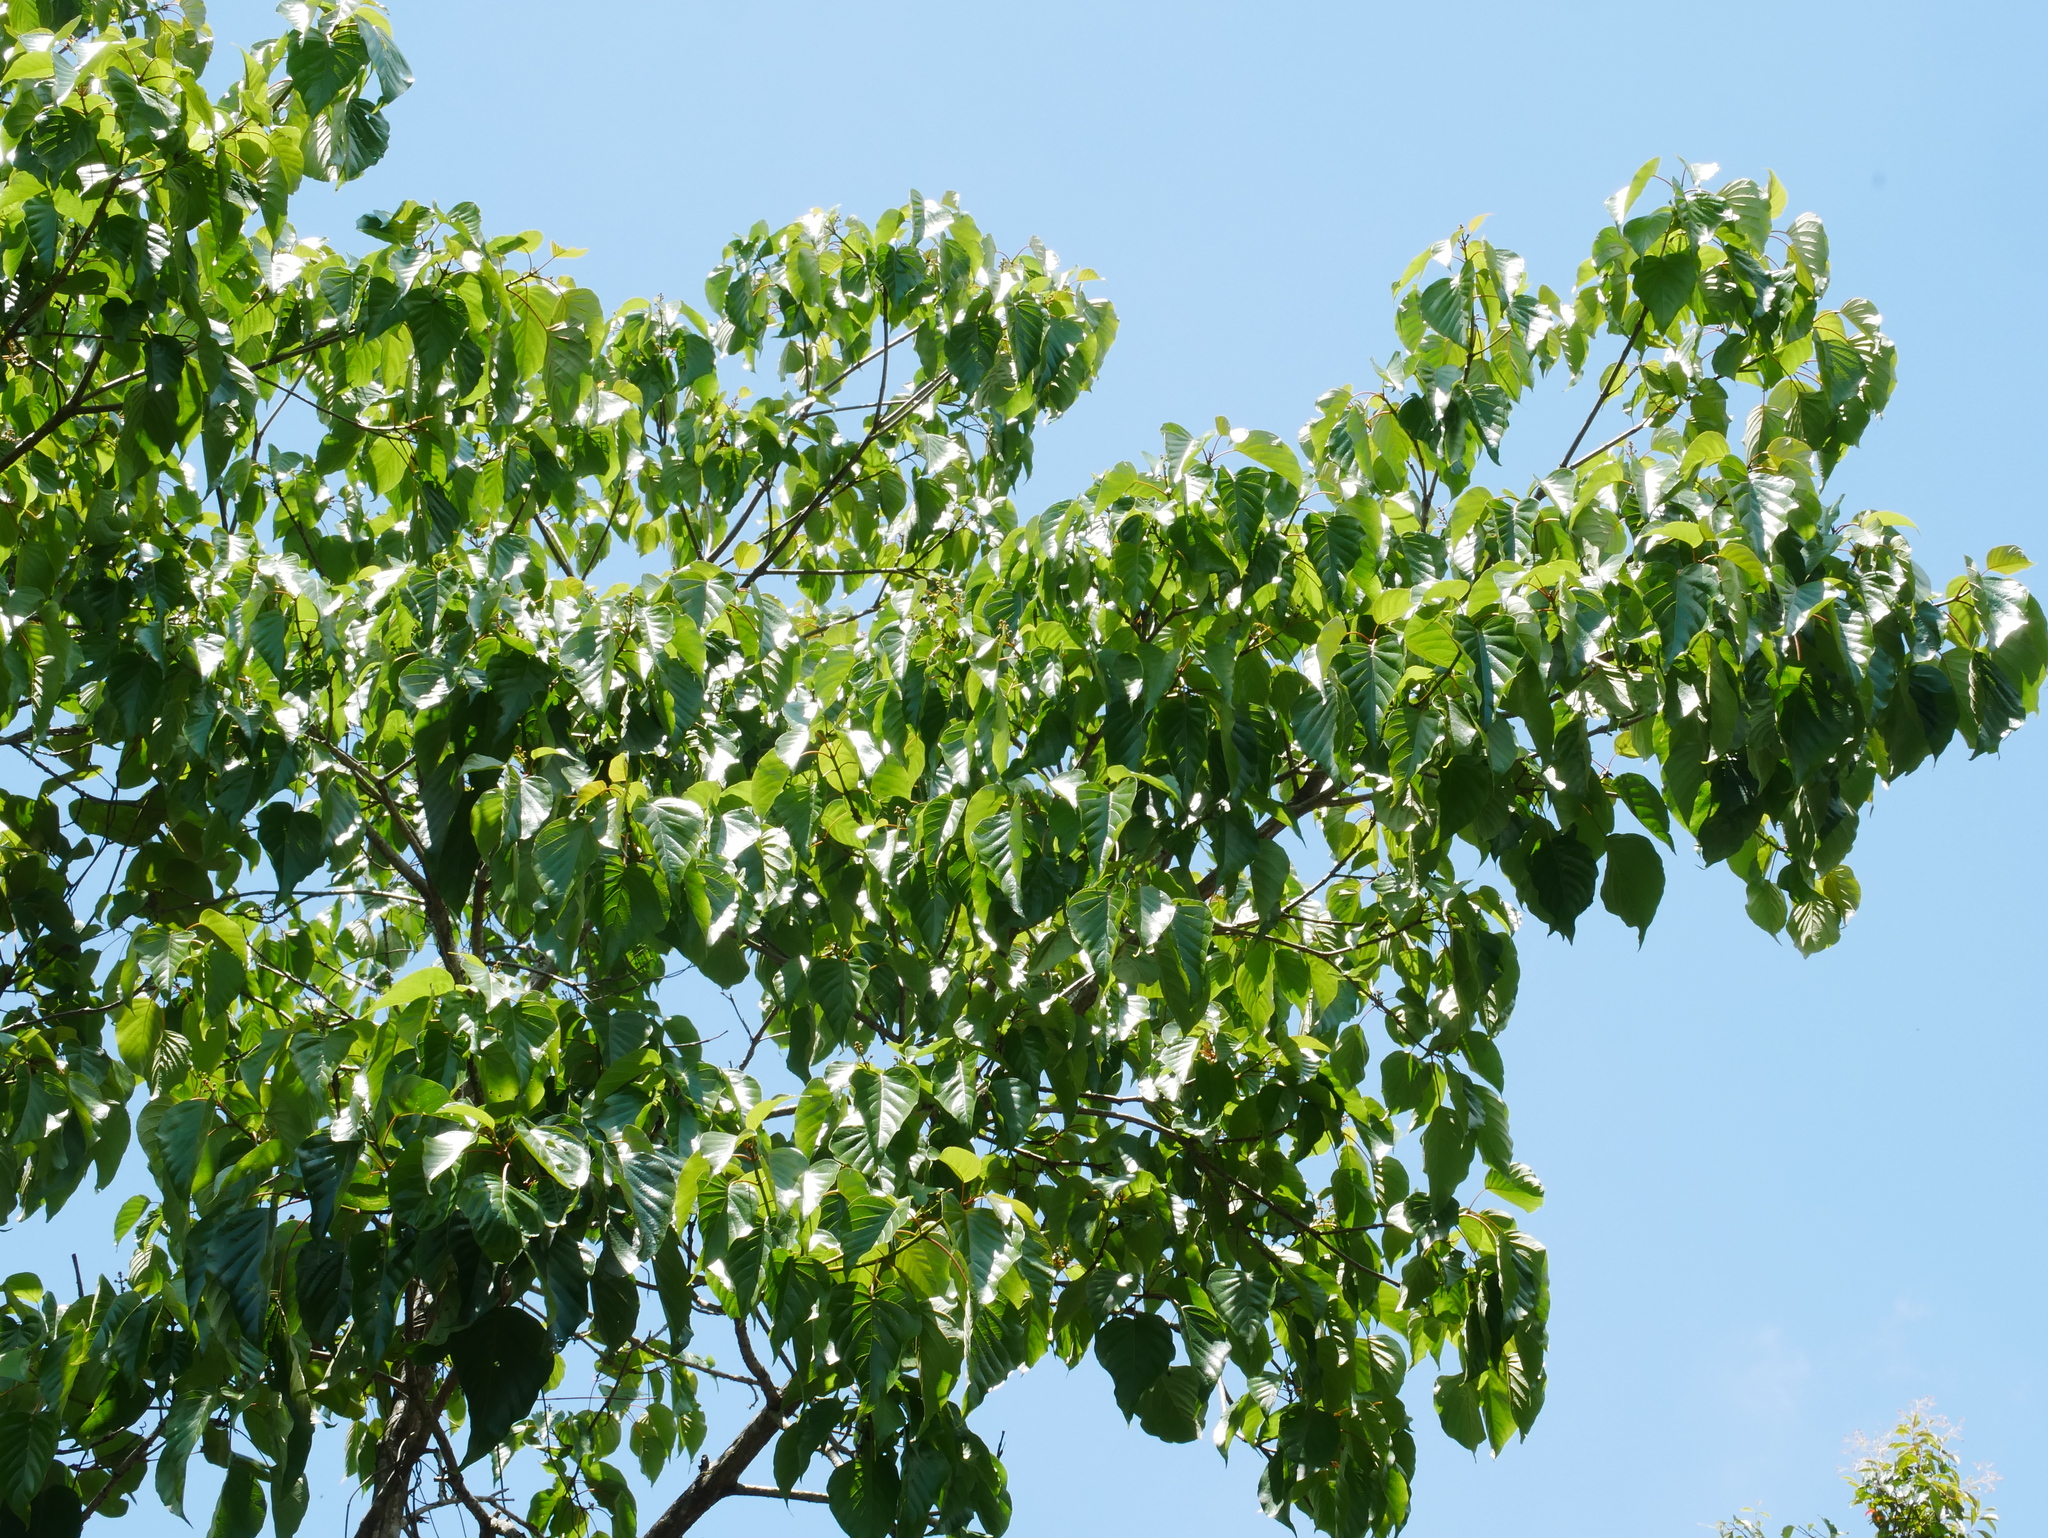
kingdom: Plantae
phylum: Tracheophyta
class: Magnoliopsida
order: Gentianales
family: Rubiaceae
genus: Adina
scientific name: Adina racemosa
